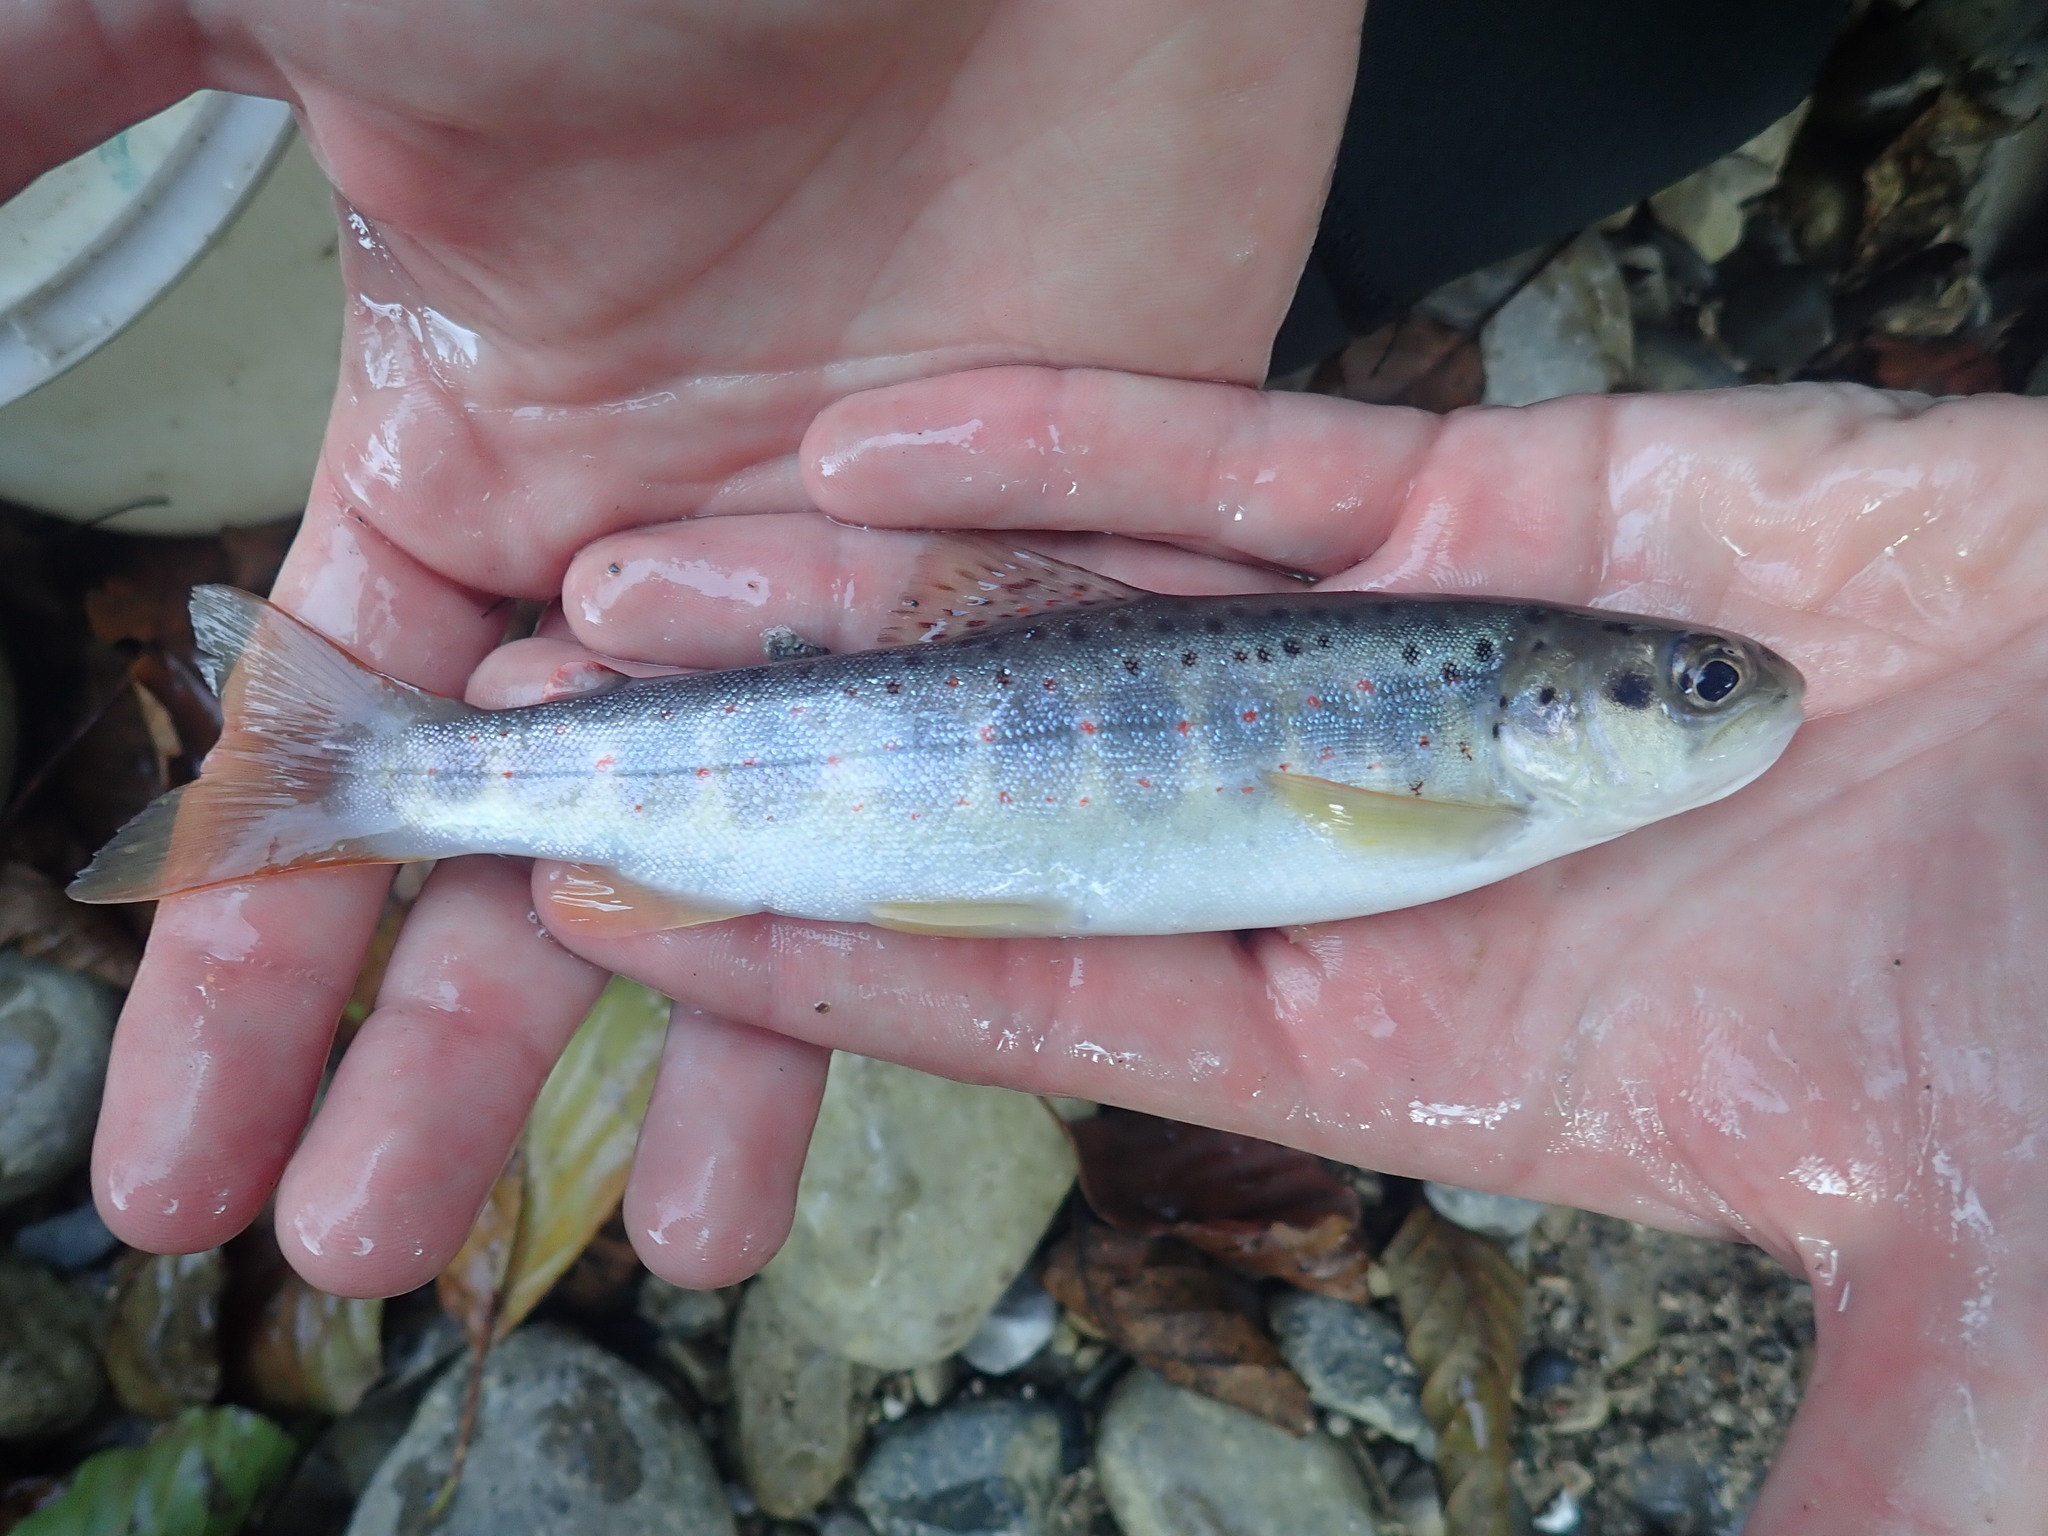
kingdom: Animalia
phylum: Chordata
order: Salmoniformes
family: Salmonidae
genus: Salmo
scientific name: Salmo labrax
